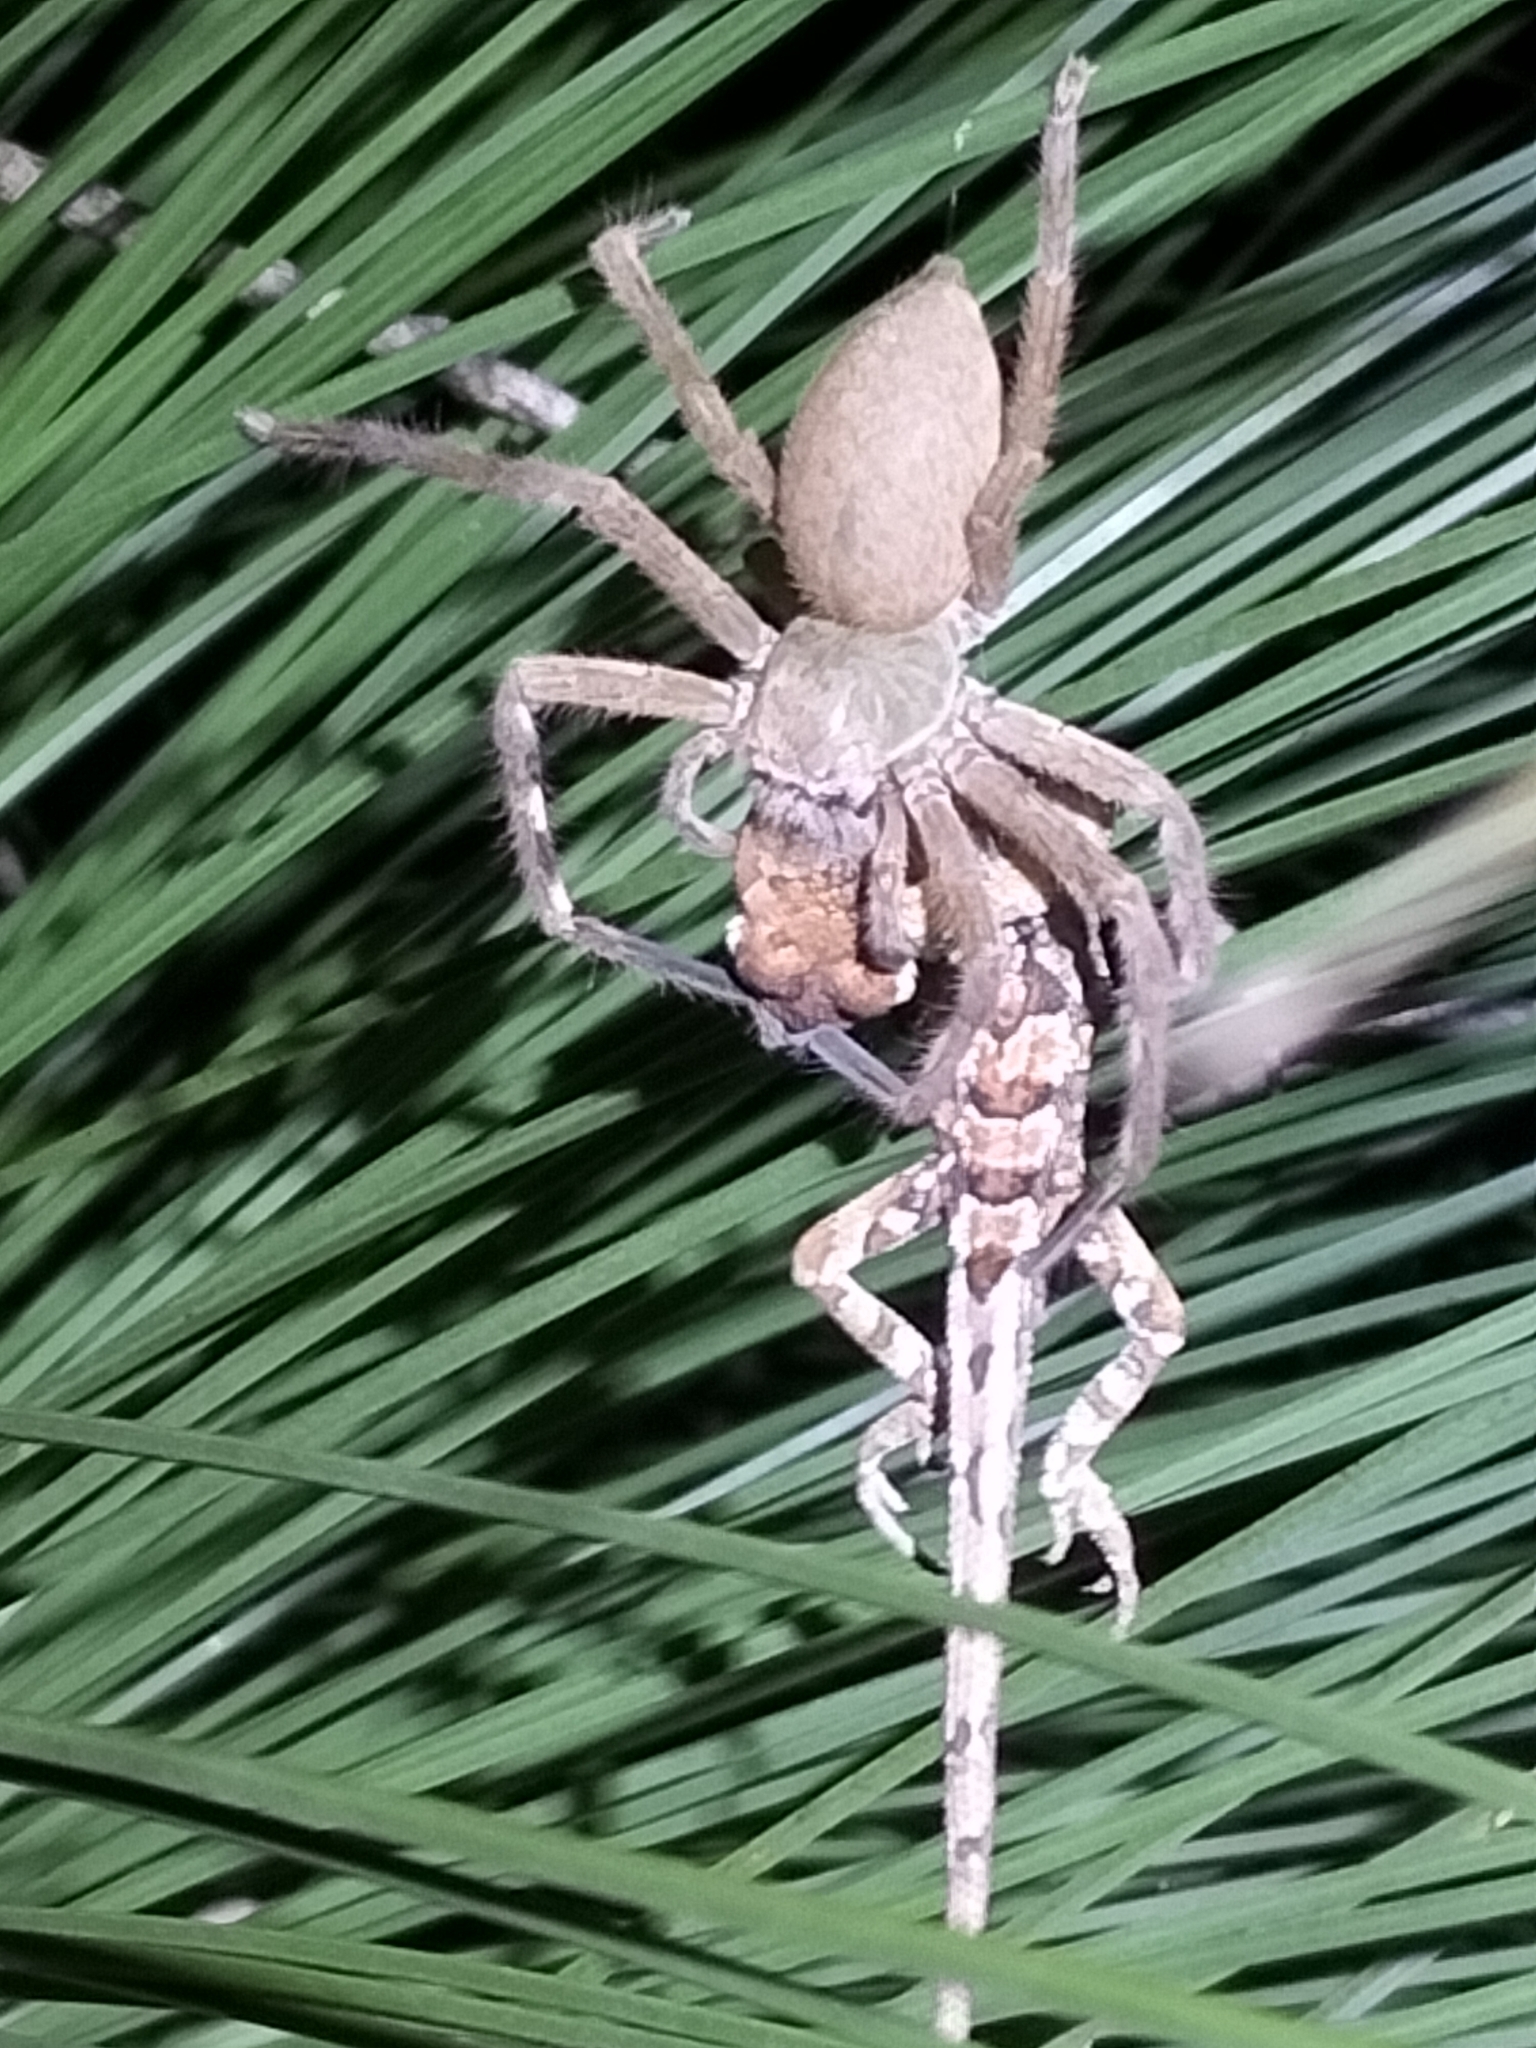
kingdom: Animalia
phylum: Arthropoda
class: Arachnida
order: Araneae
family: Sparassidae
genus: Neosparassus
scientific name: Neosparassus salacius
